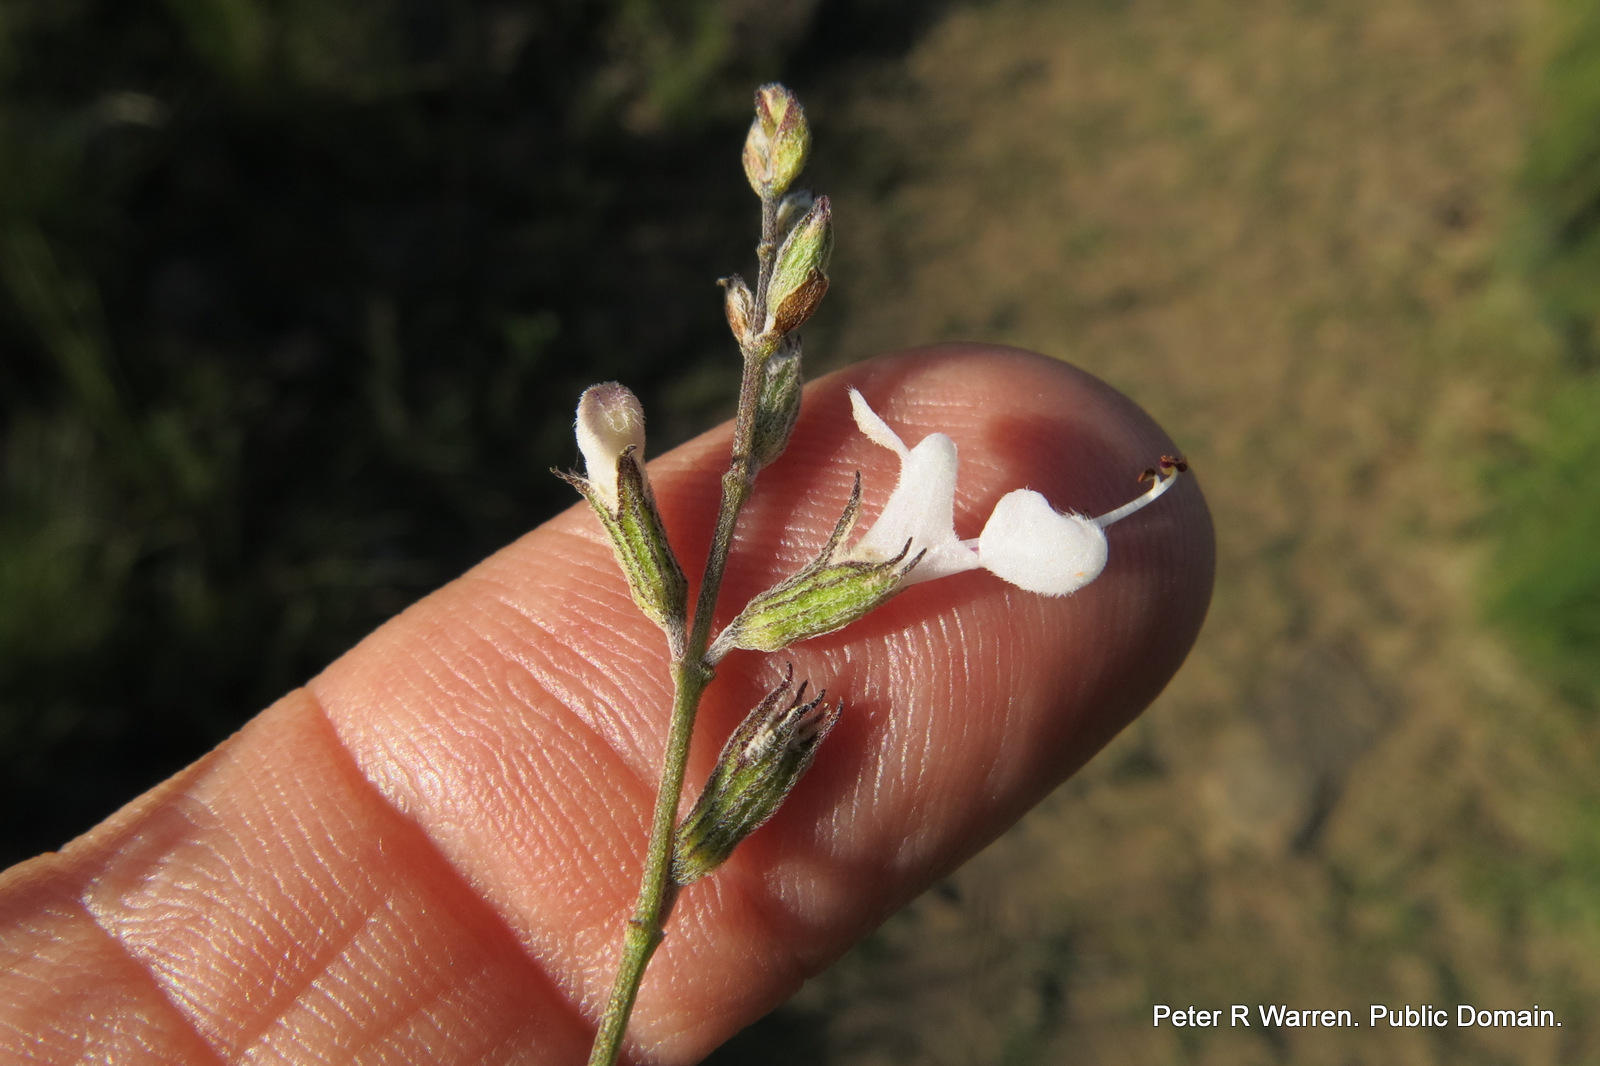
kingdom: Plantae
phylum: Tracheophyta
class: Magnoliopsida
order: Lamiales
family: Lamiaceae
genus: Syncolostemon
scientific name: Syncolostemon parviflorus
